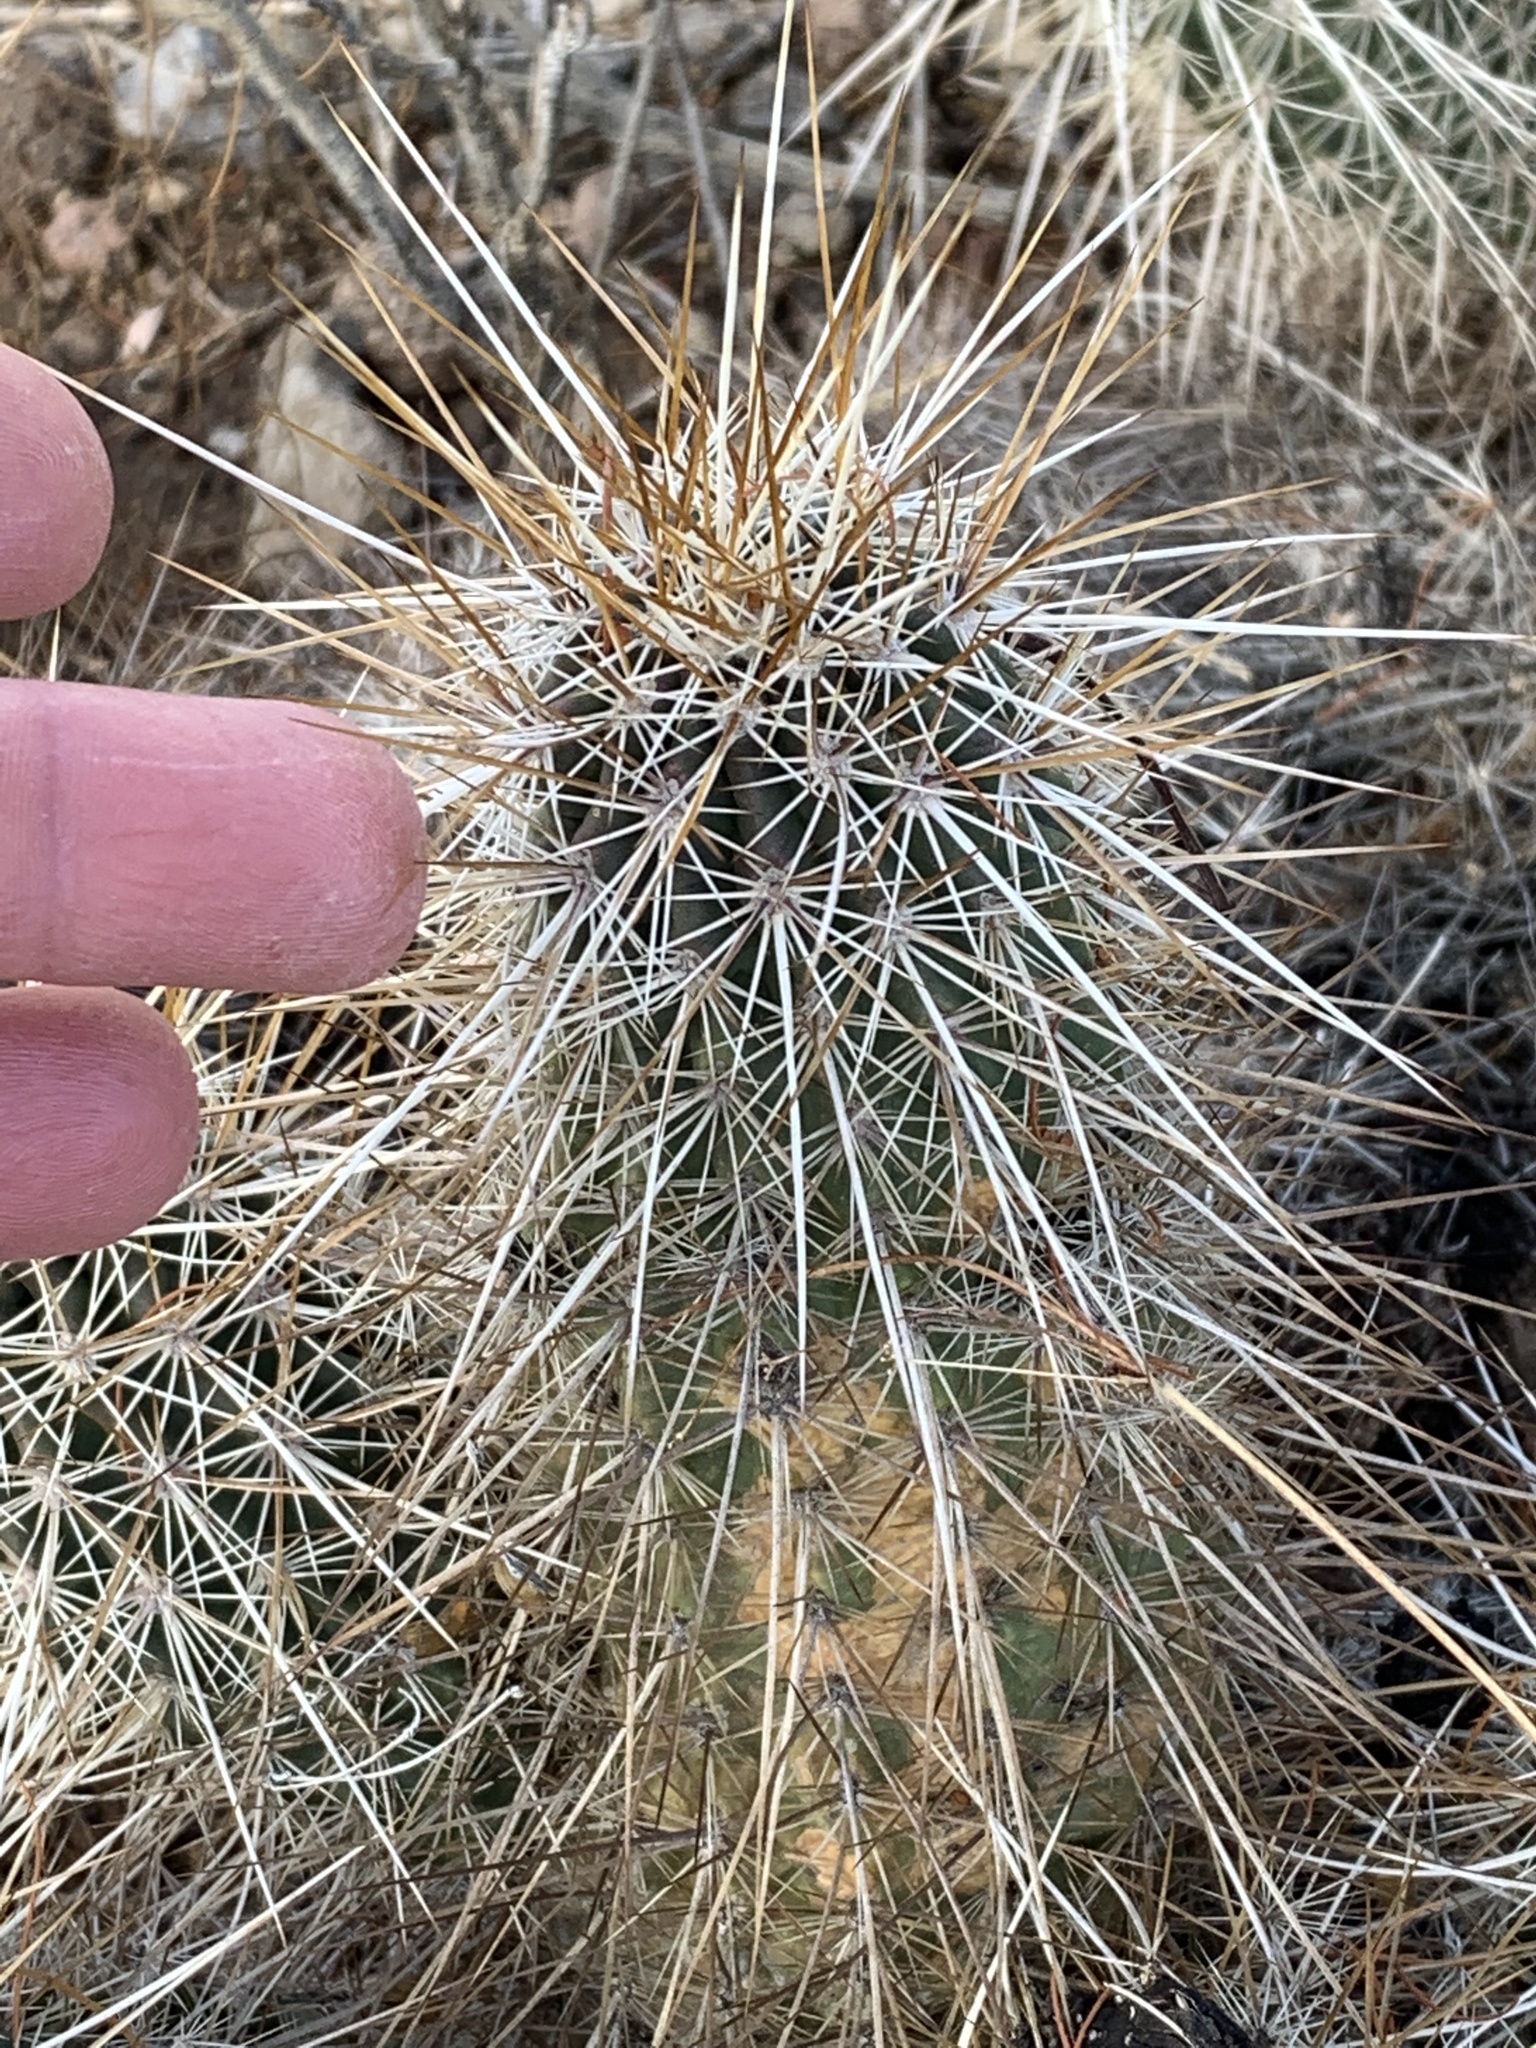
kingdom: Plantae
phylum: Tracheophyta
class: Magnoliopsida
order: Caryophyllales
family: Cactaceae
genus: Echinocereus
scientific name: Echinocereus engelmannii
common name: Engelmann's hedgehog cactus
